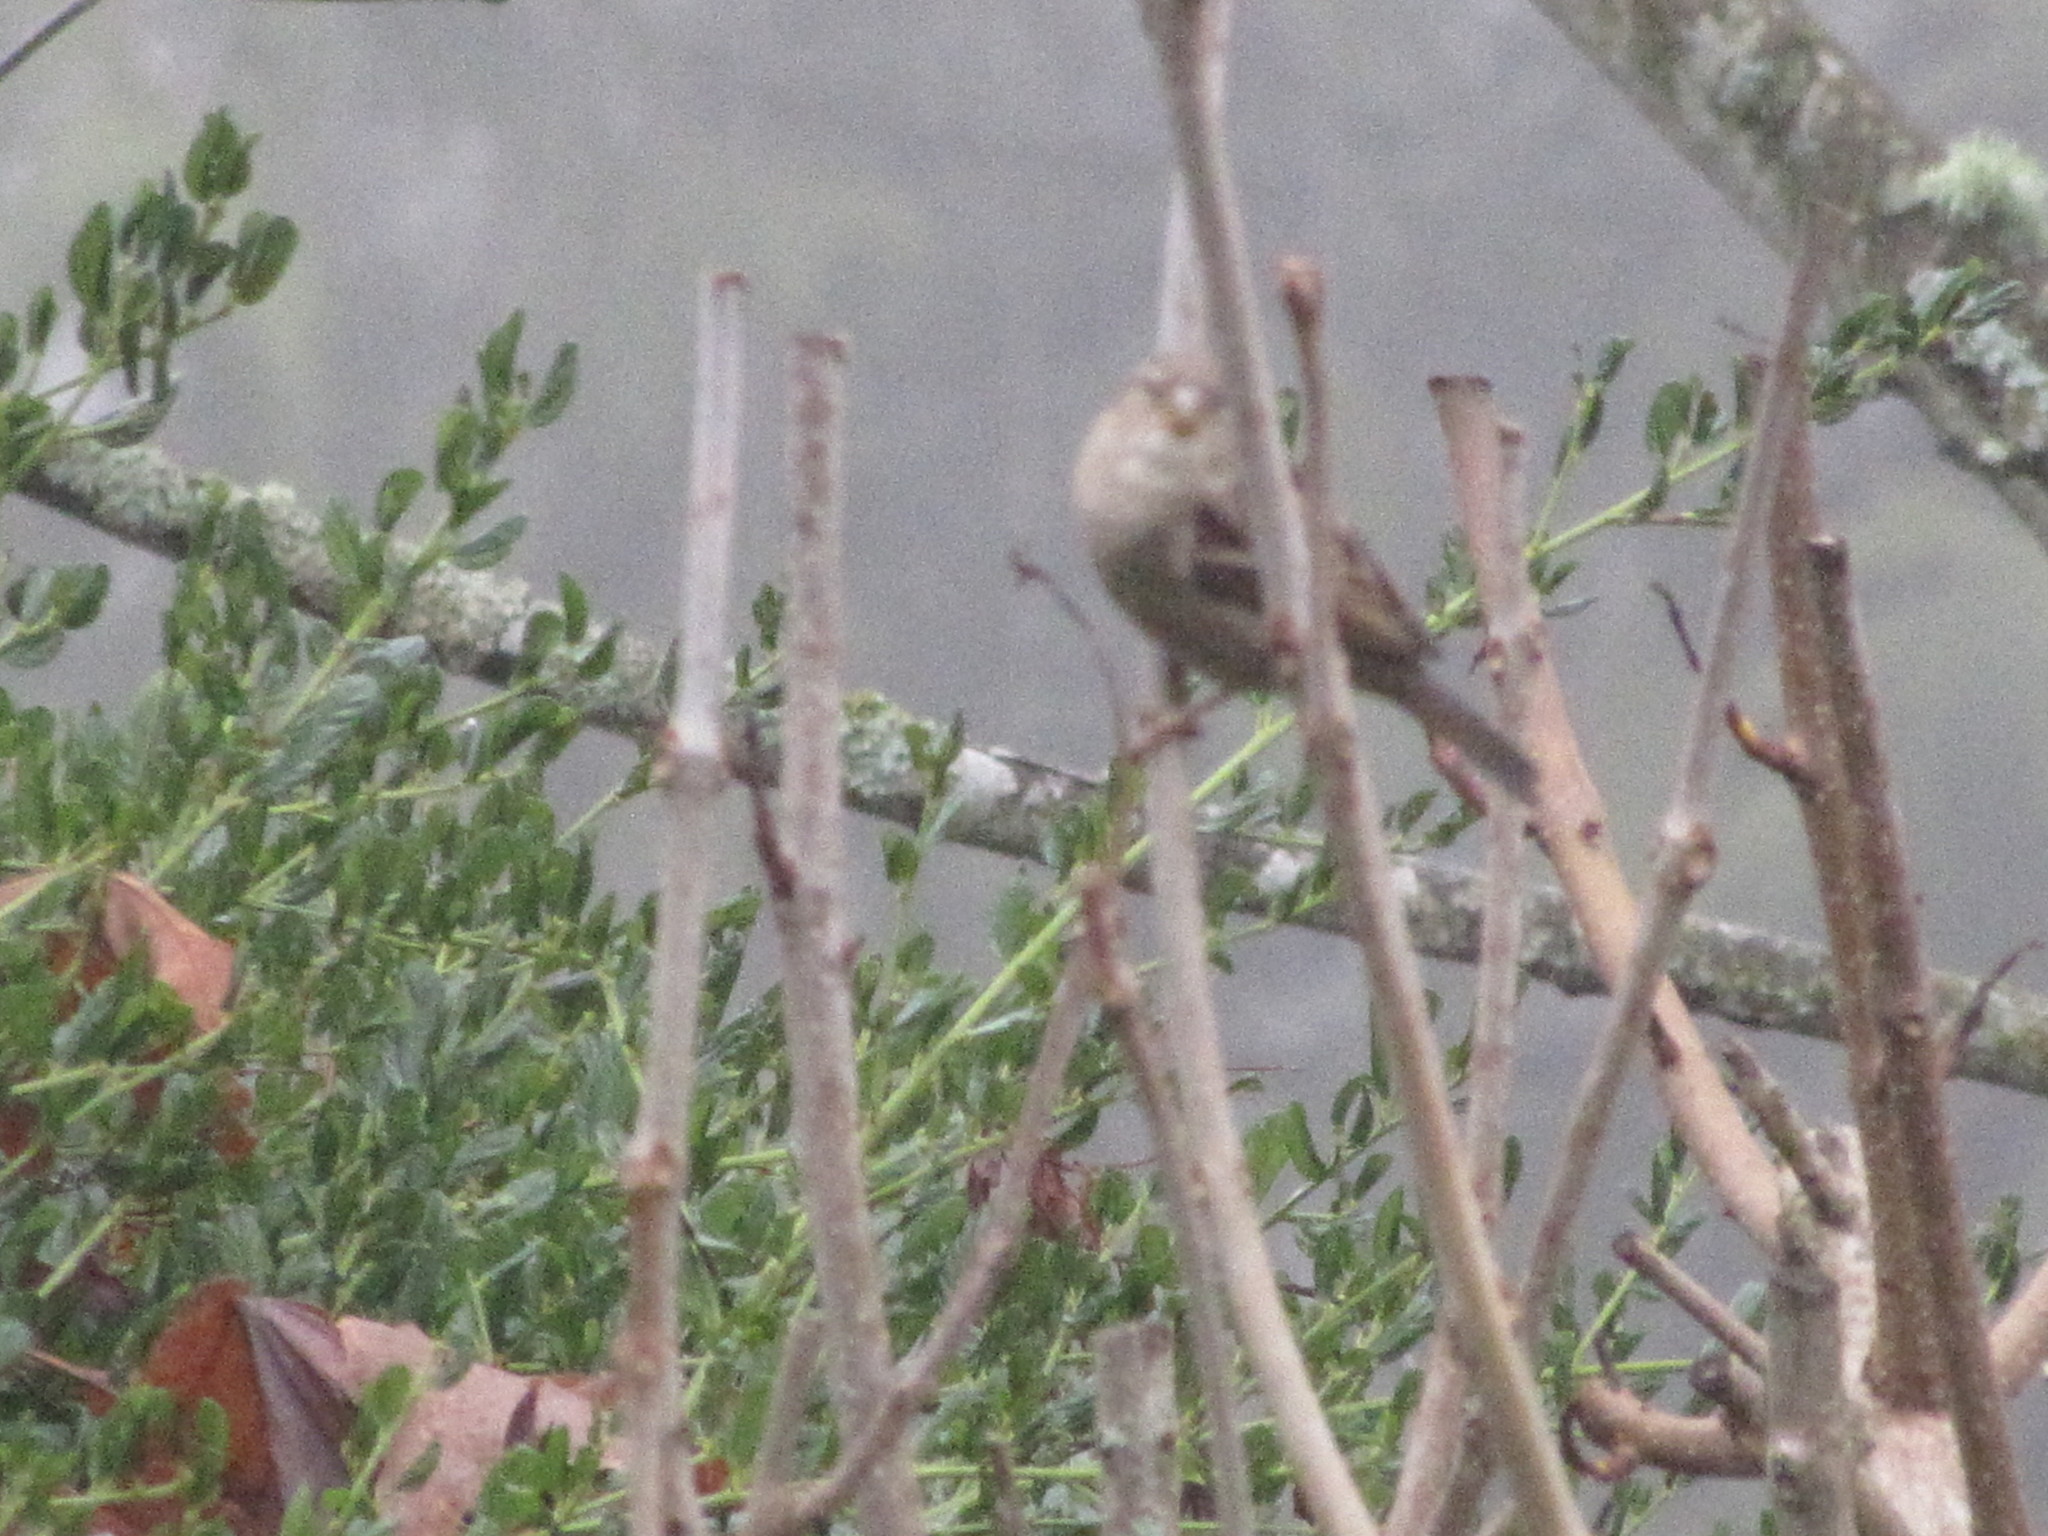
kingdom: Animalia
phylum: Chordata
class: Aves
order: Passeriformes
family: Passeridae
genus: Passer
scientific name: Passer domesticus
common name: House sparrow
